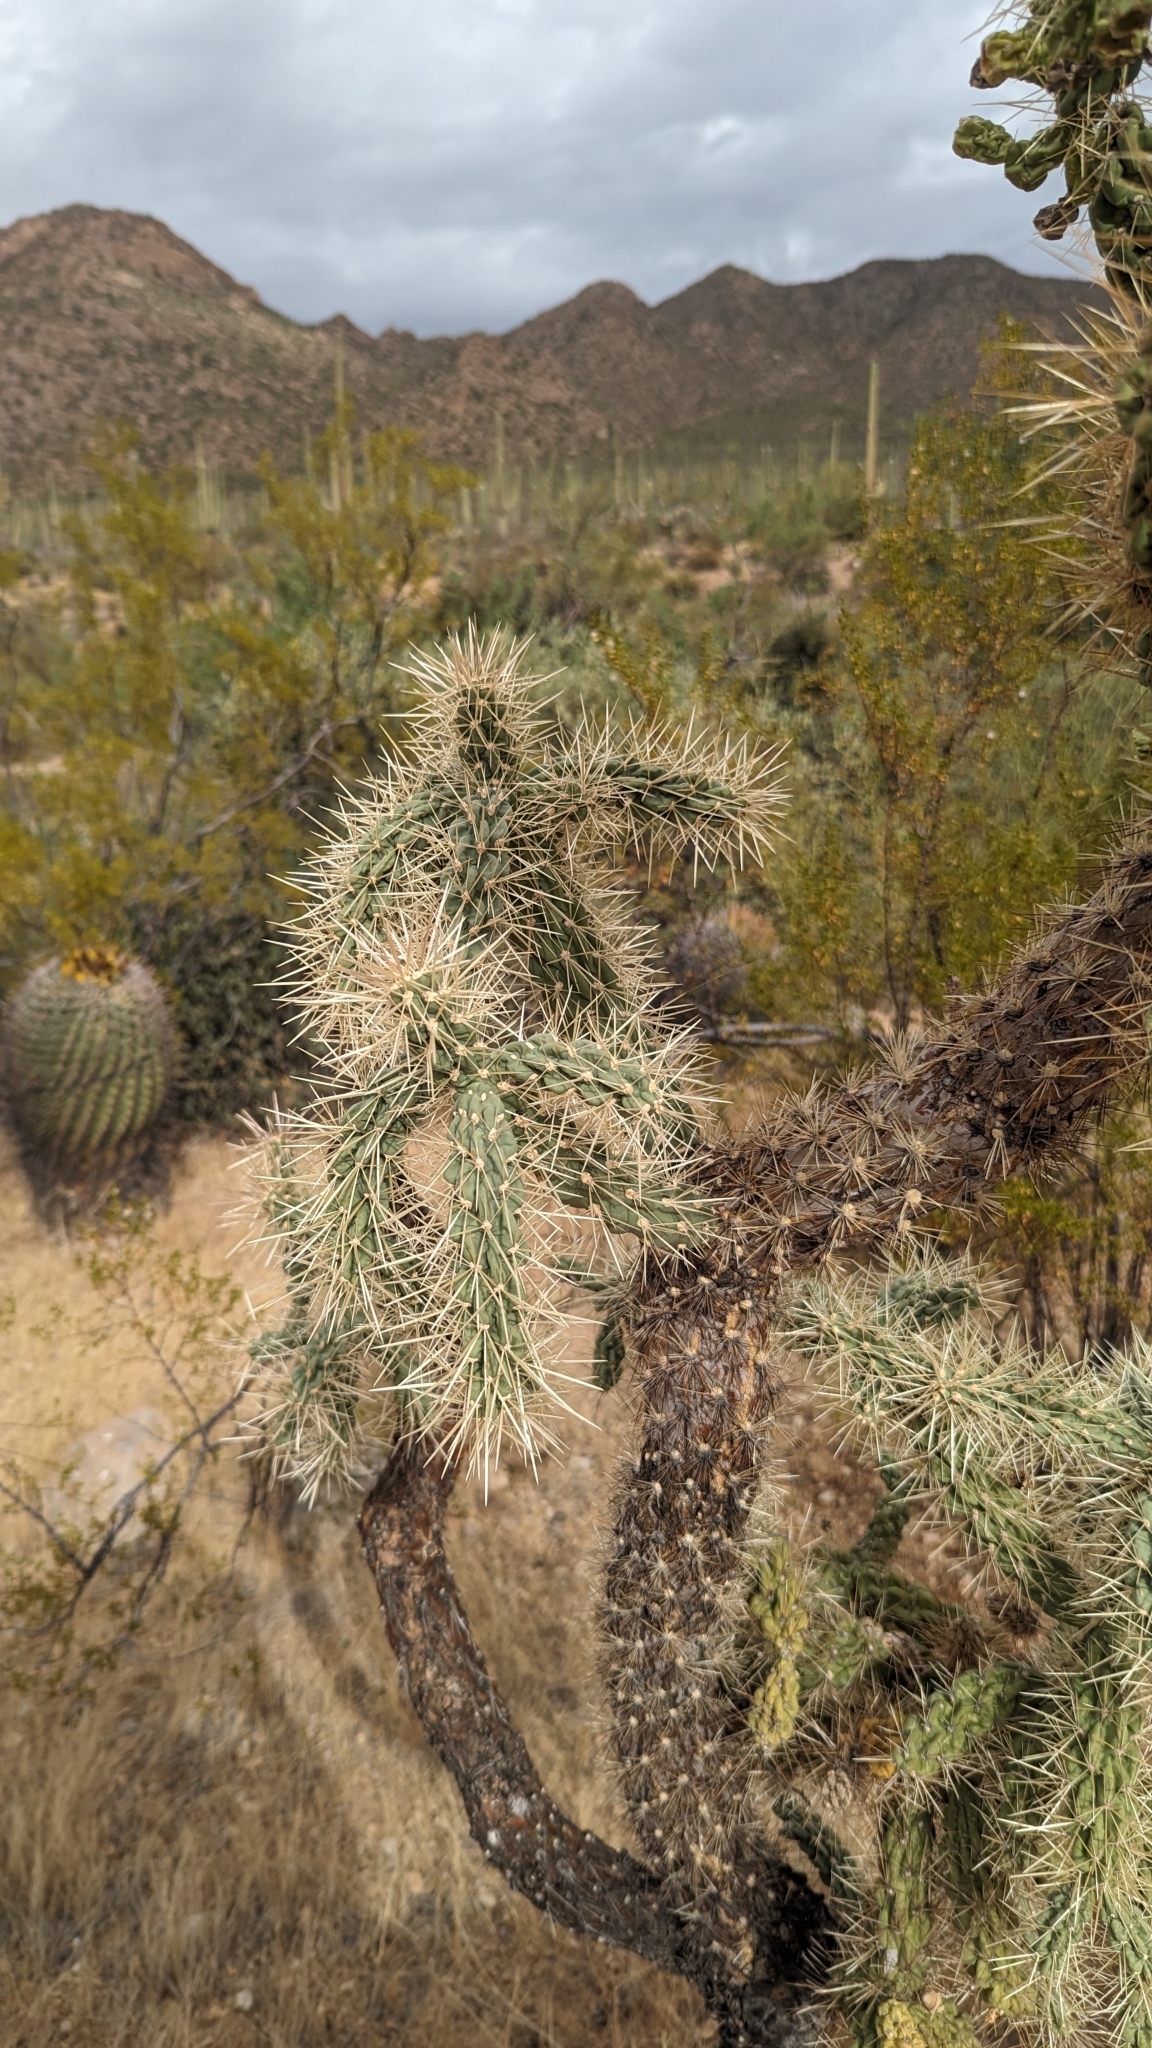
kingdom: Plantae
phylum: Tracheophyta
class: Magnoliopsida
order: Caryophyllales
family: Cactaceae
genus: Cylindropuntia
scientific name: Cylindropuntia fulgida
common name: Jumping cholla
